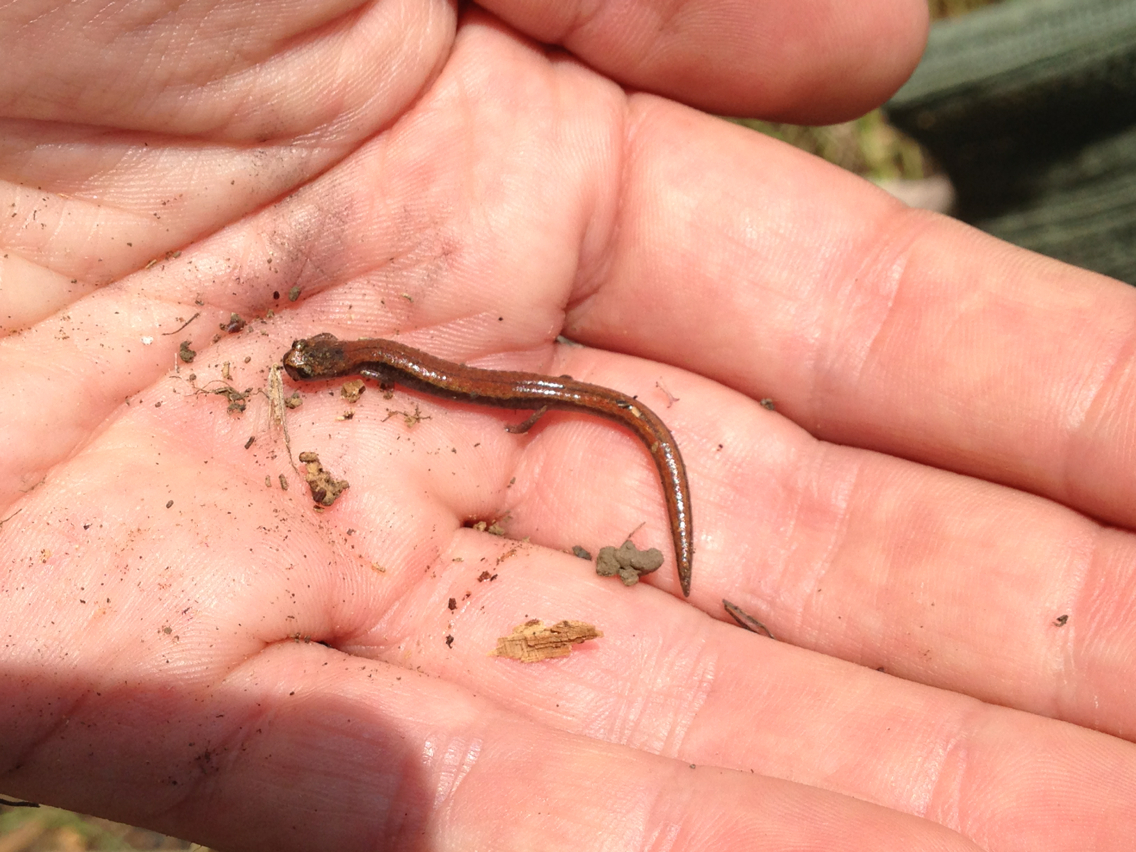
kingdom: Animalia
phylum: Chordata
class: Amphibia
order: Caudata
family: Plethodontidae
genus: Batrachoseps
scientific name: Batrachoseps attenuatus
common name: California slender salamander
